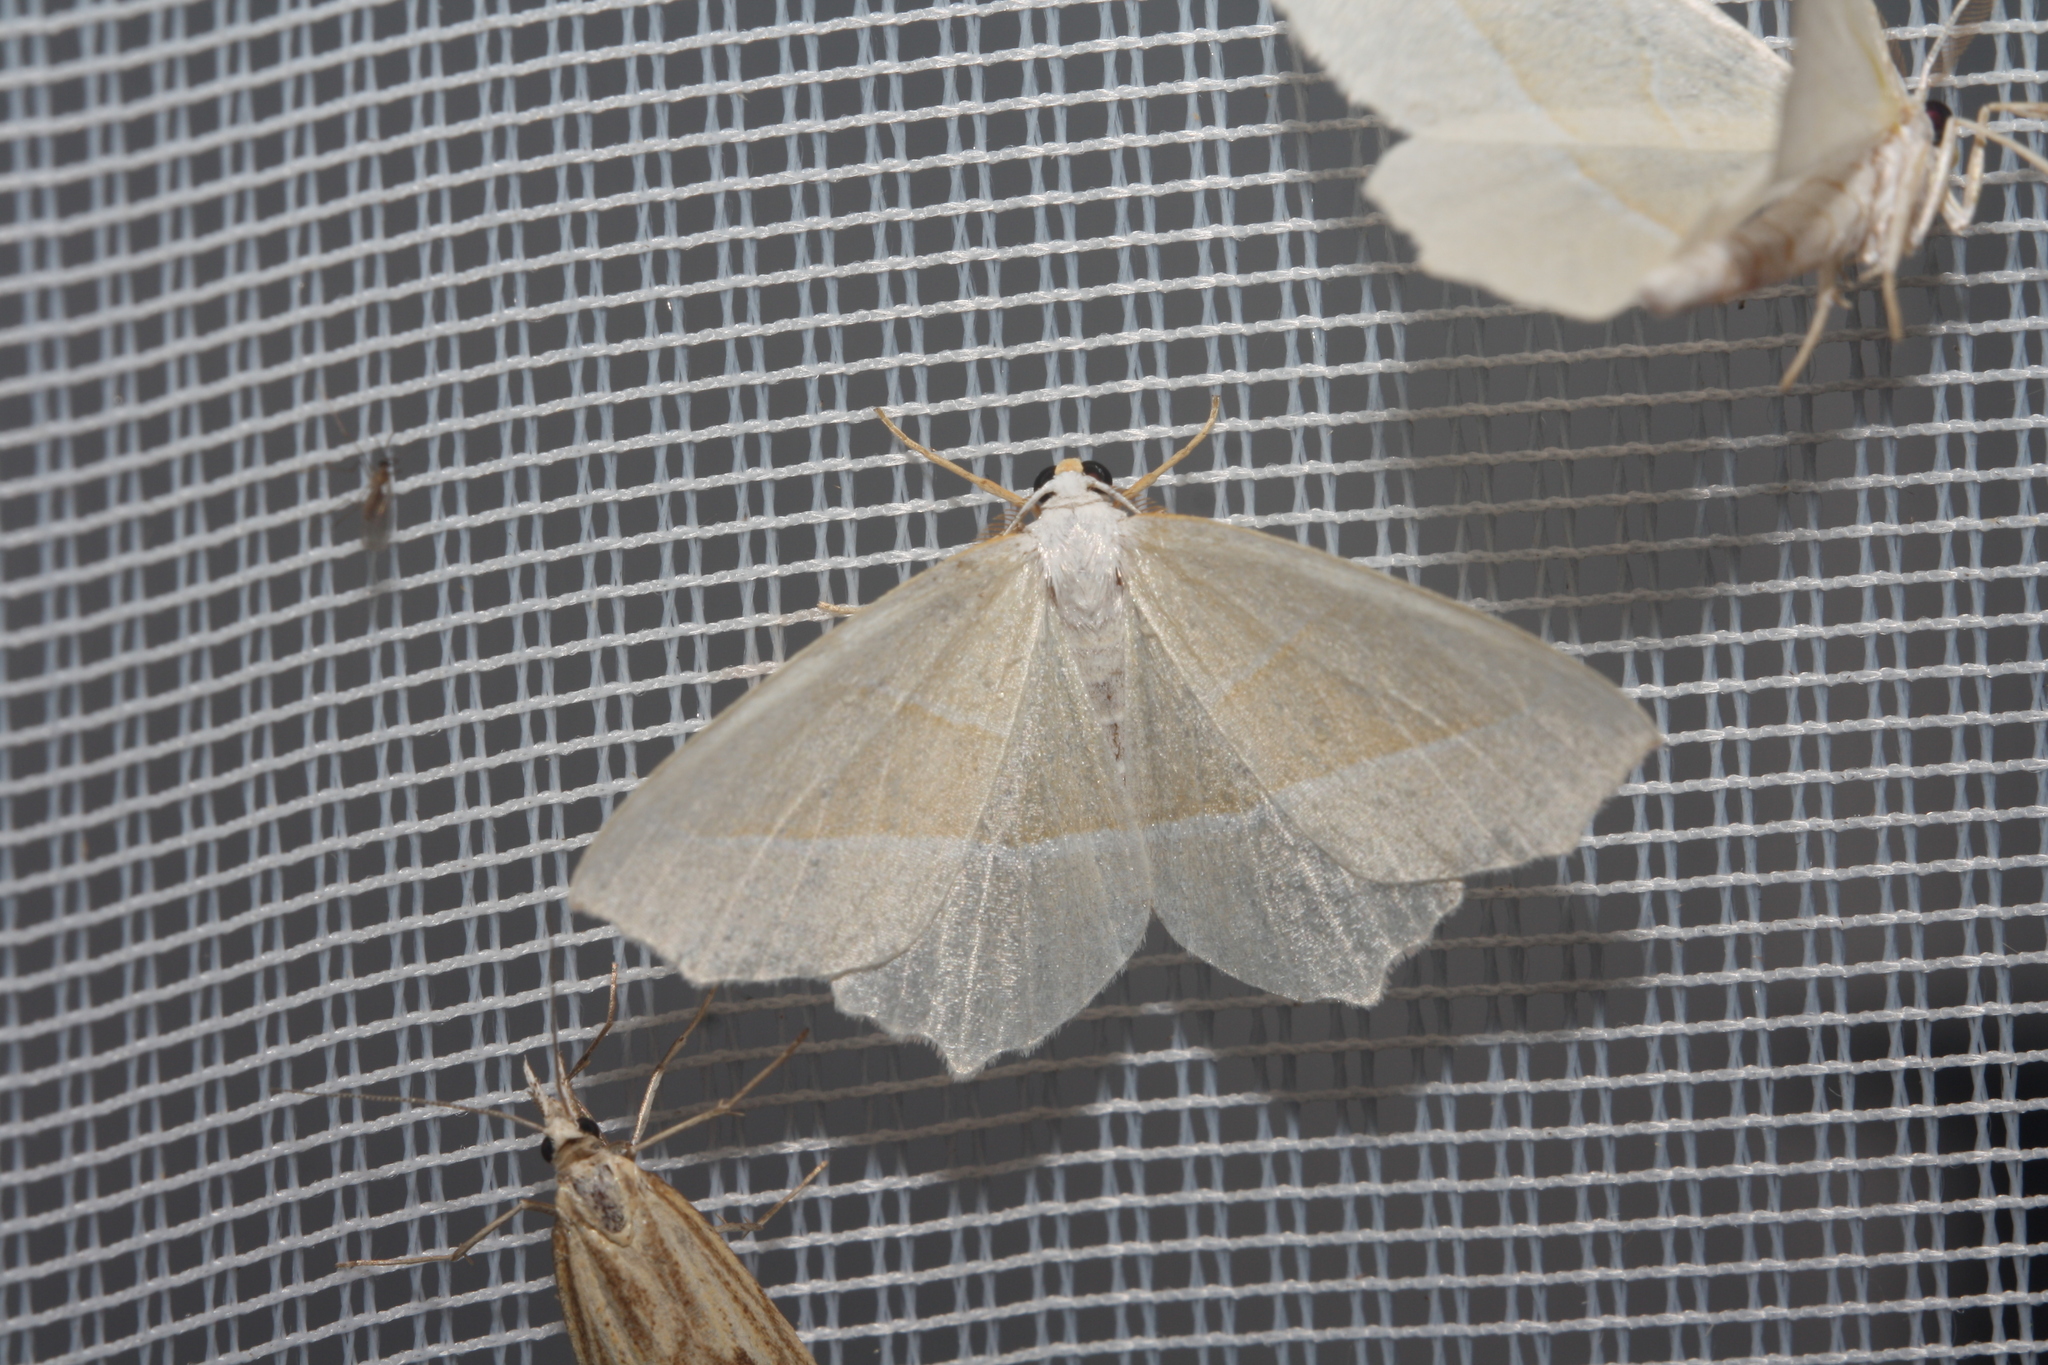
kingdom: Animalia
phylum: Arthropoda
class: Insecta
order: Lepidoptera
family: Geometridae
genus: Campaea
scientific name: Campaea margaritaria
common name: Light emerald
